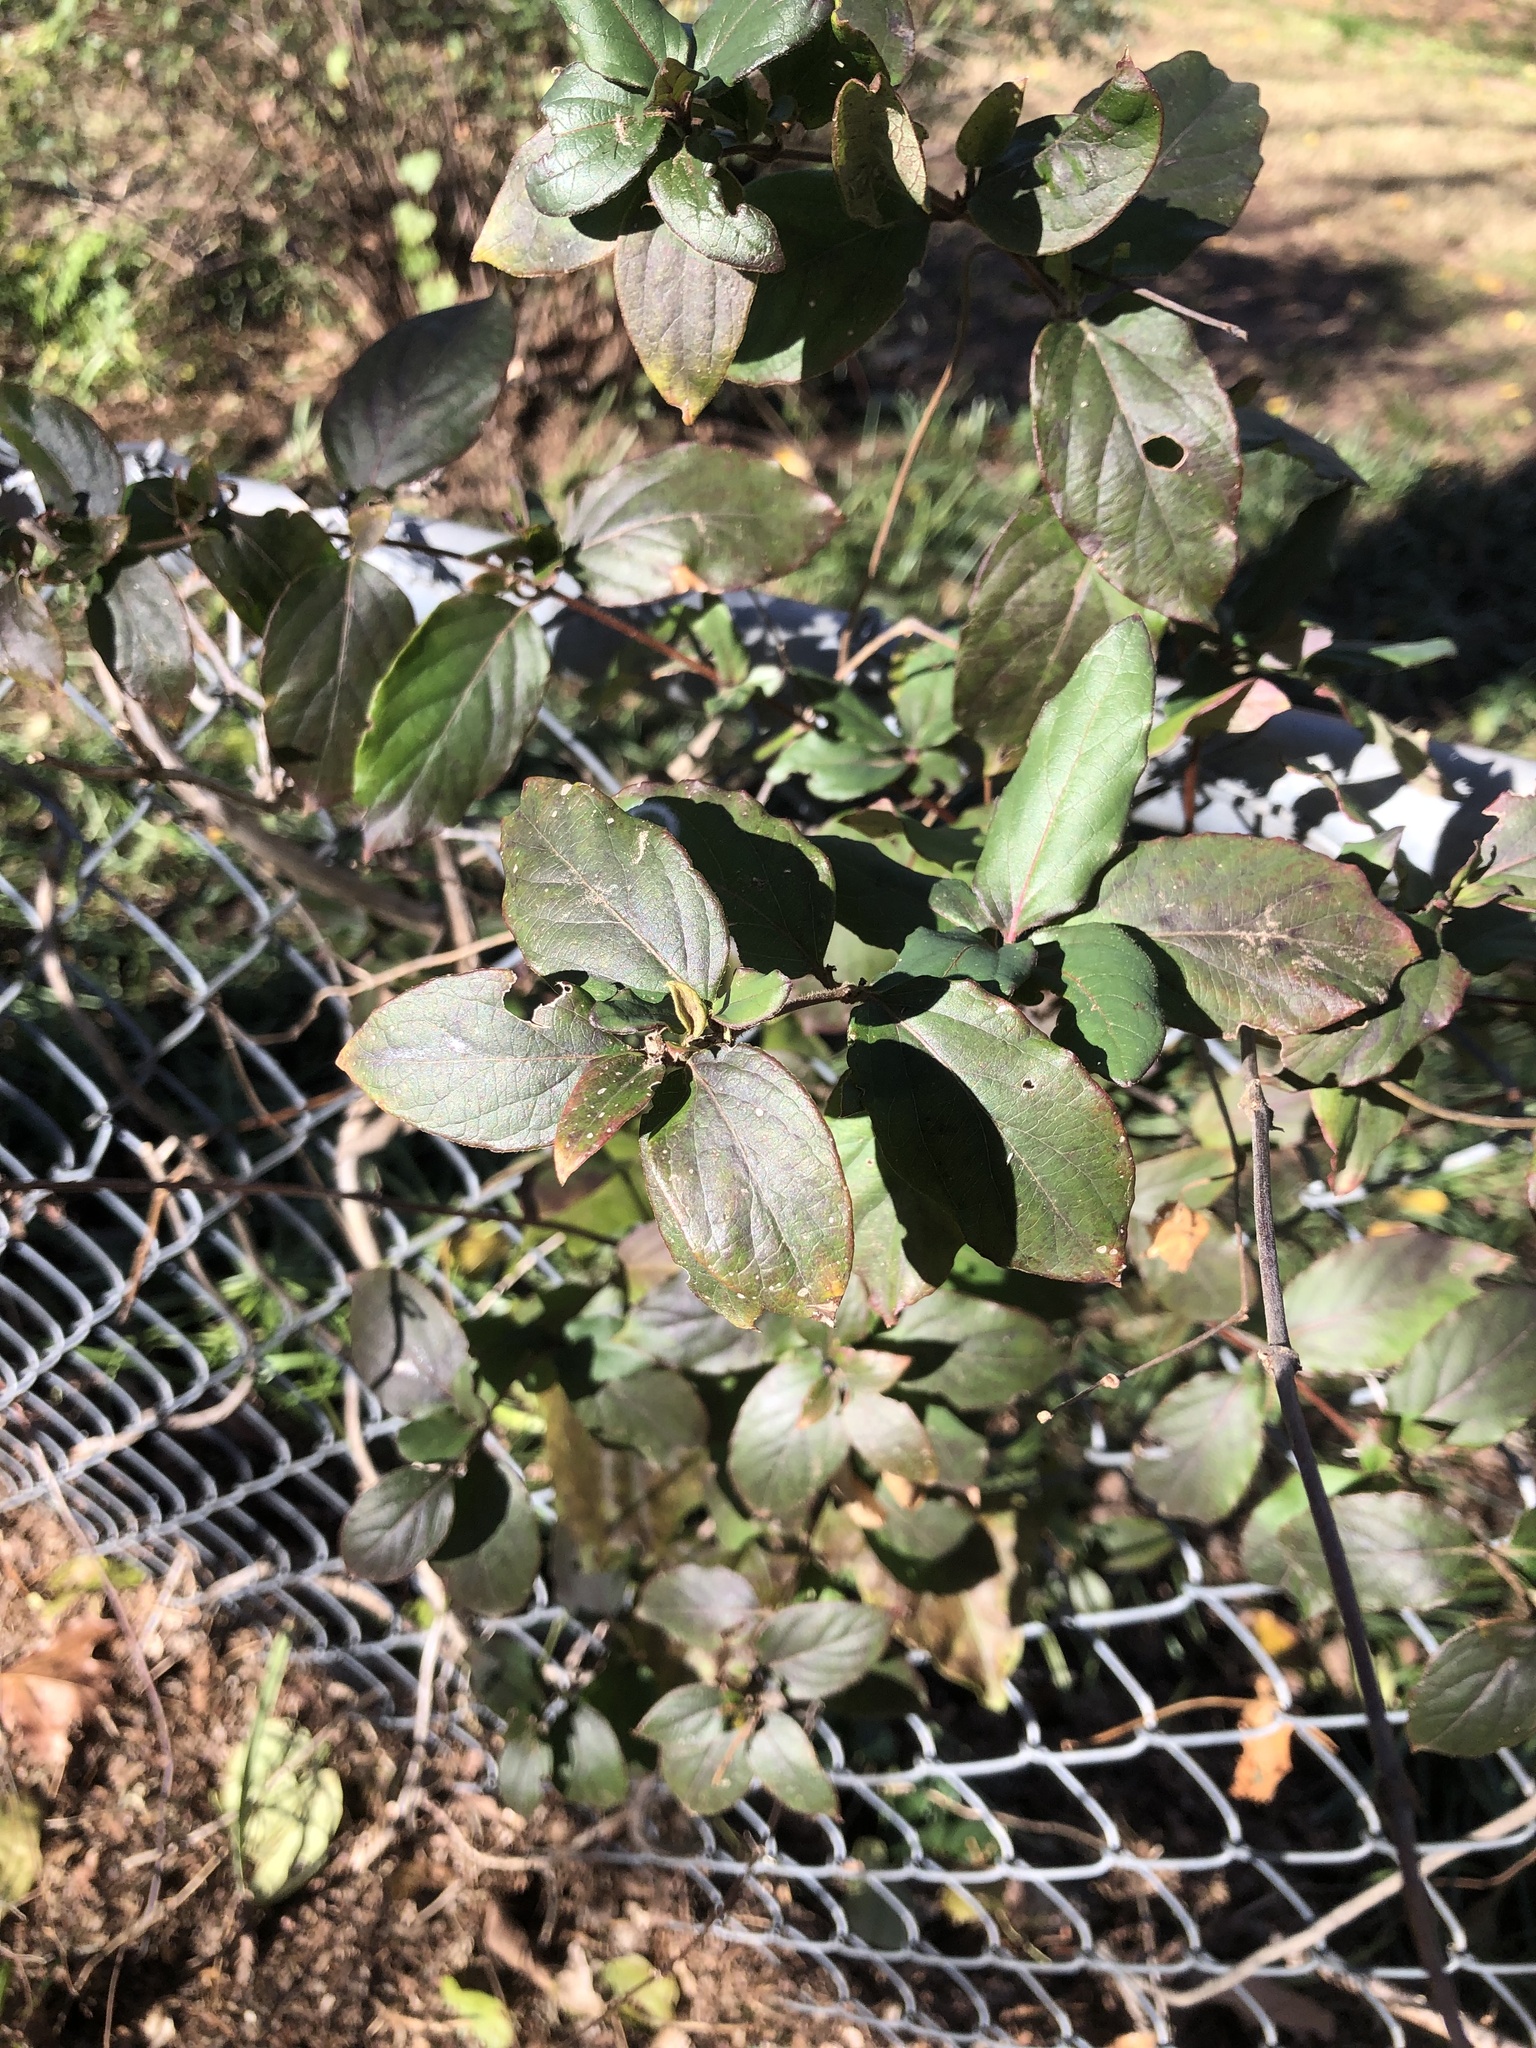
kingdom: Plantae
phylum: Tracheophyta
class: Magnoliopsida
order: Dipsacales
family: Caprifoliaceae
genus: Lonicera
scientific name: Lonicera japonica
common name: Japanese honeysuckle
